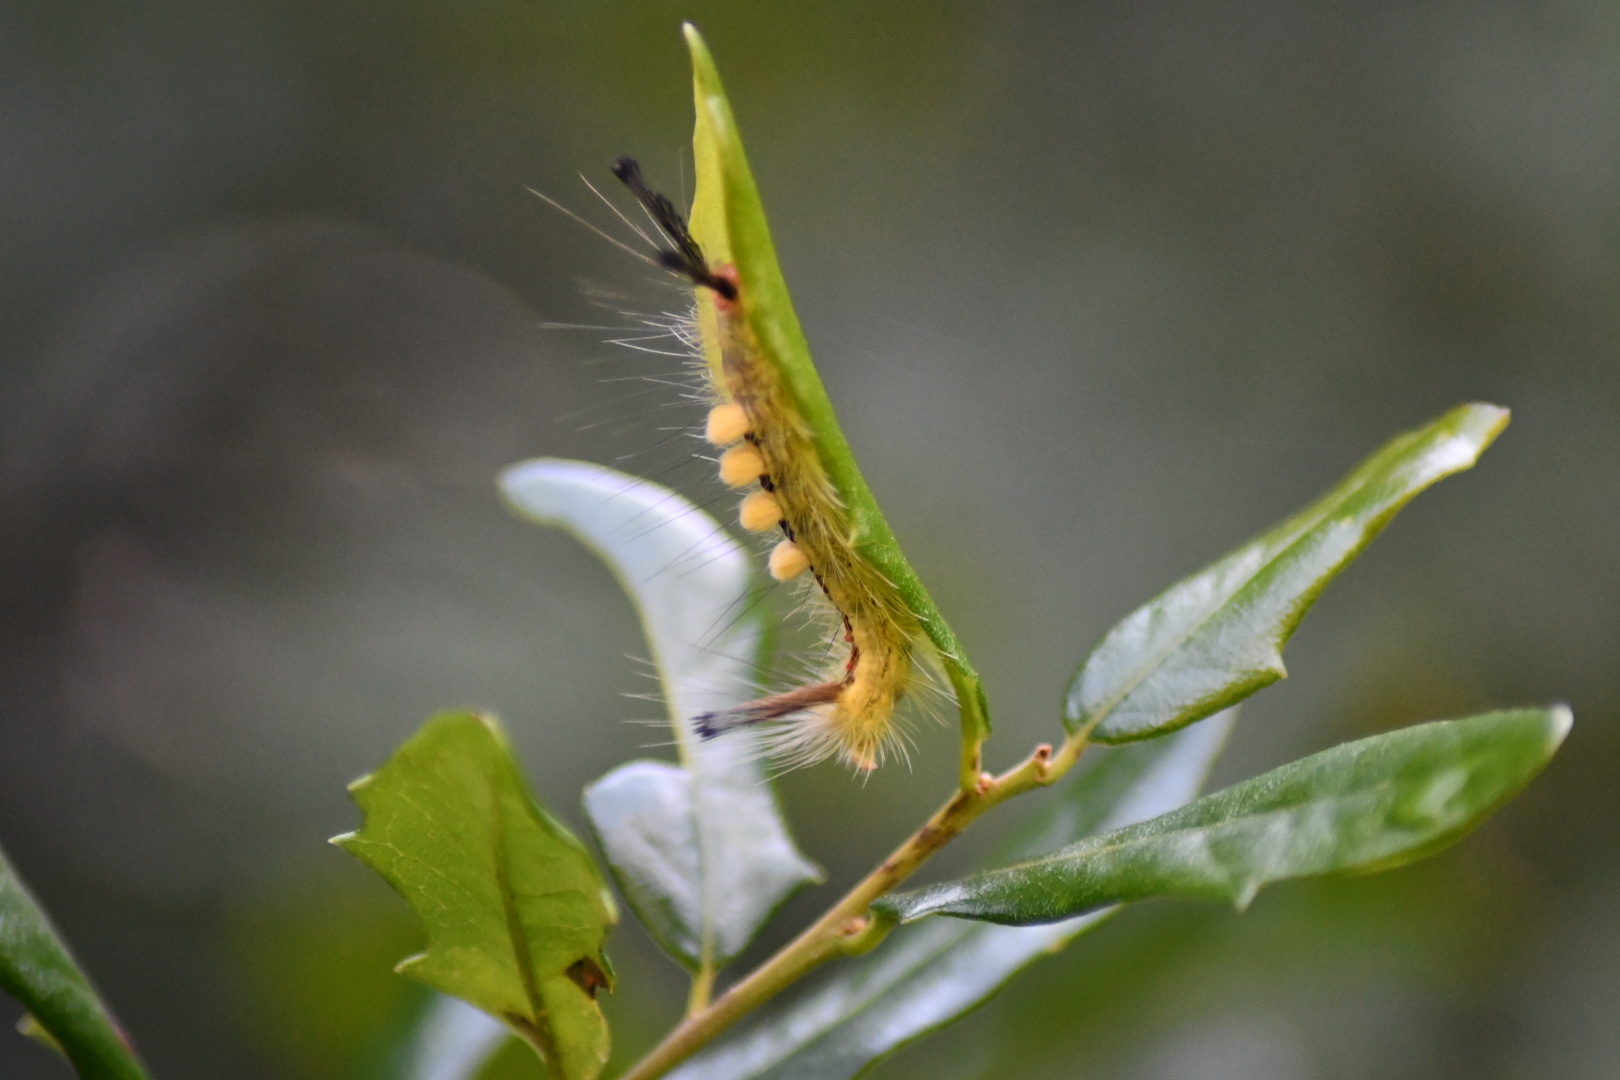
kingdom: Animalia
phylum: Arthropoda
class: Insecta
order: Lepidoptera
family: Erebidae
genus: Orgyia
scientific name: Orgyia leucostigma
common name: White-marked tussock moth
